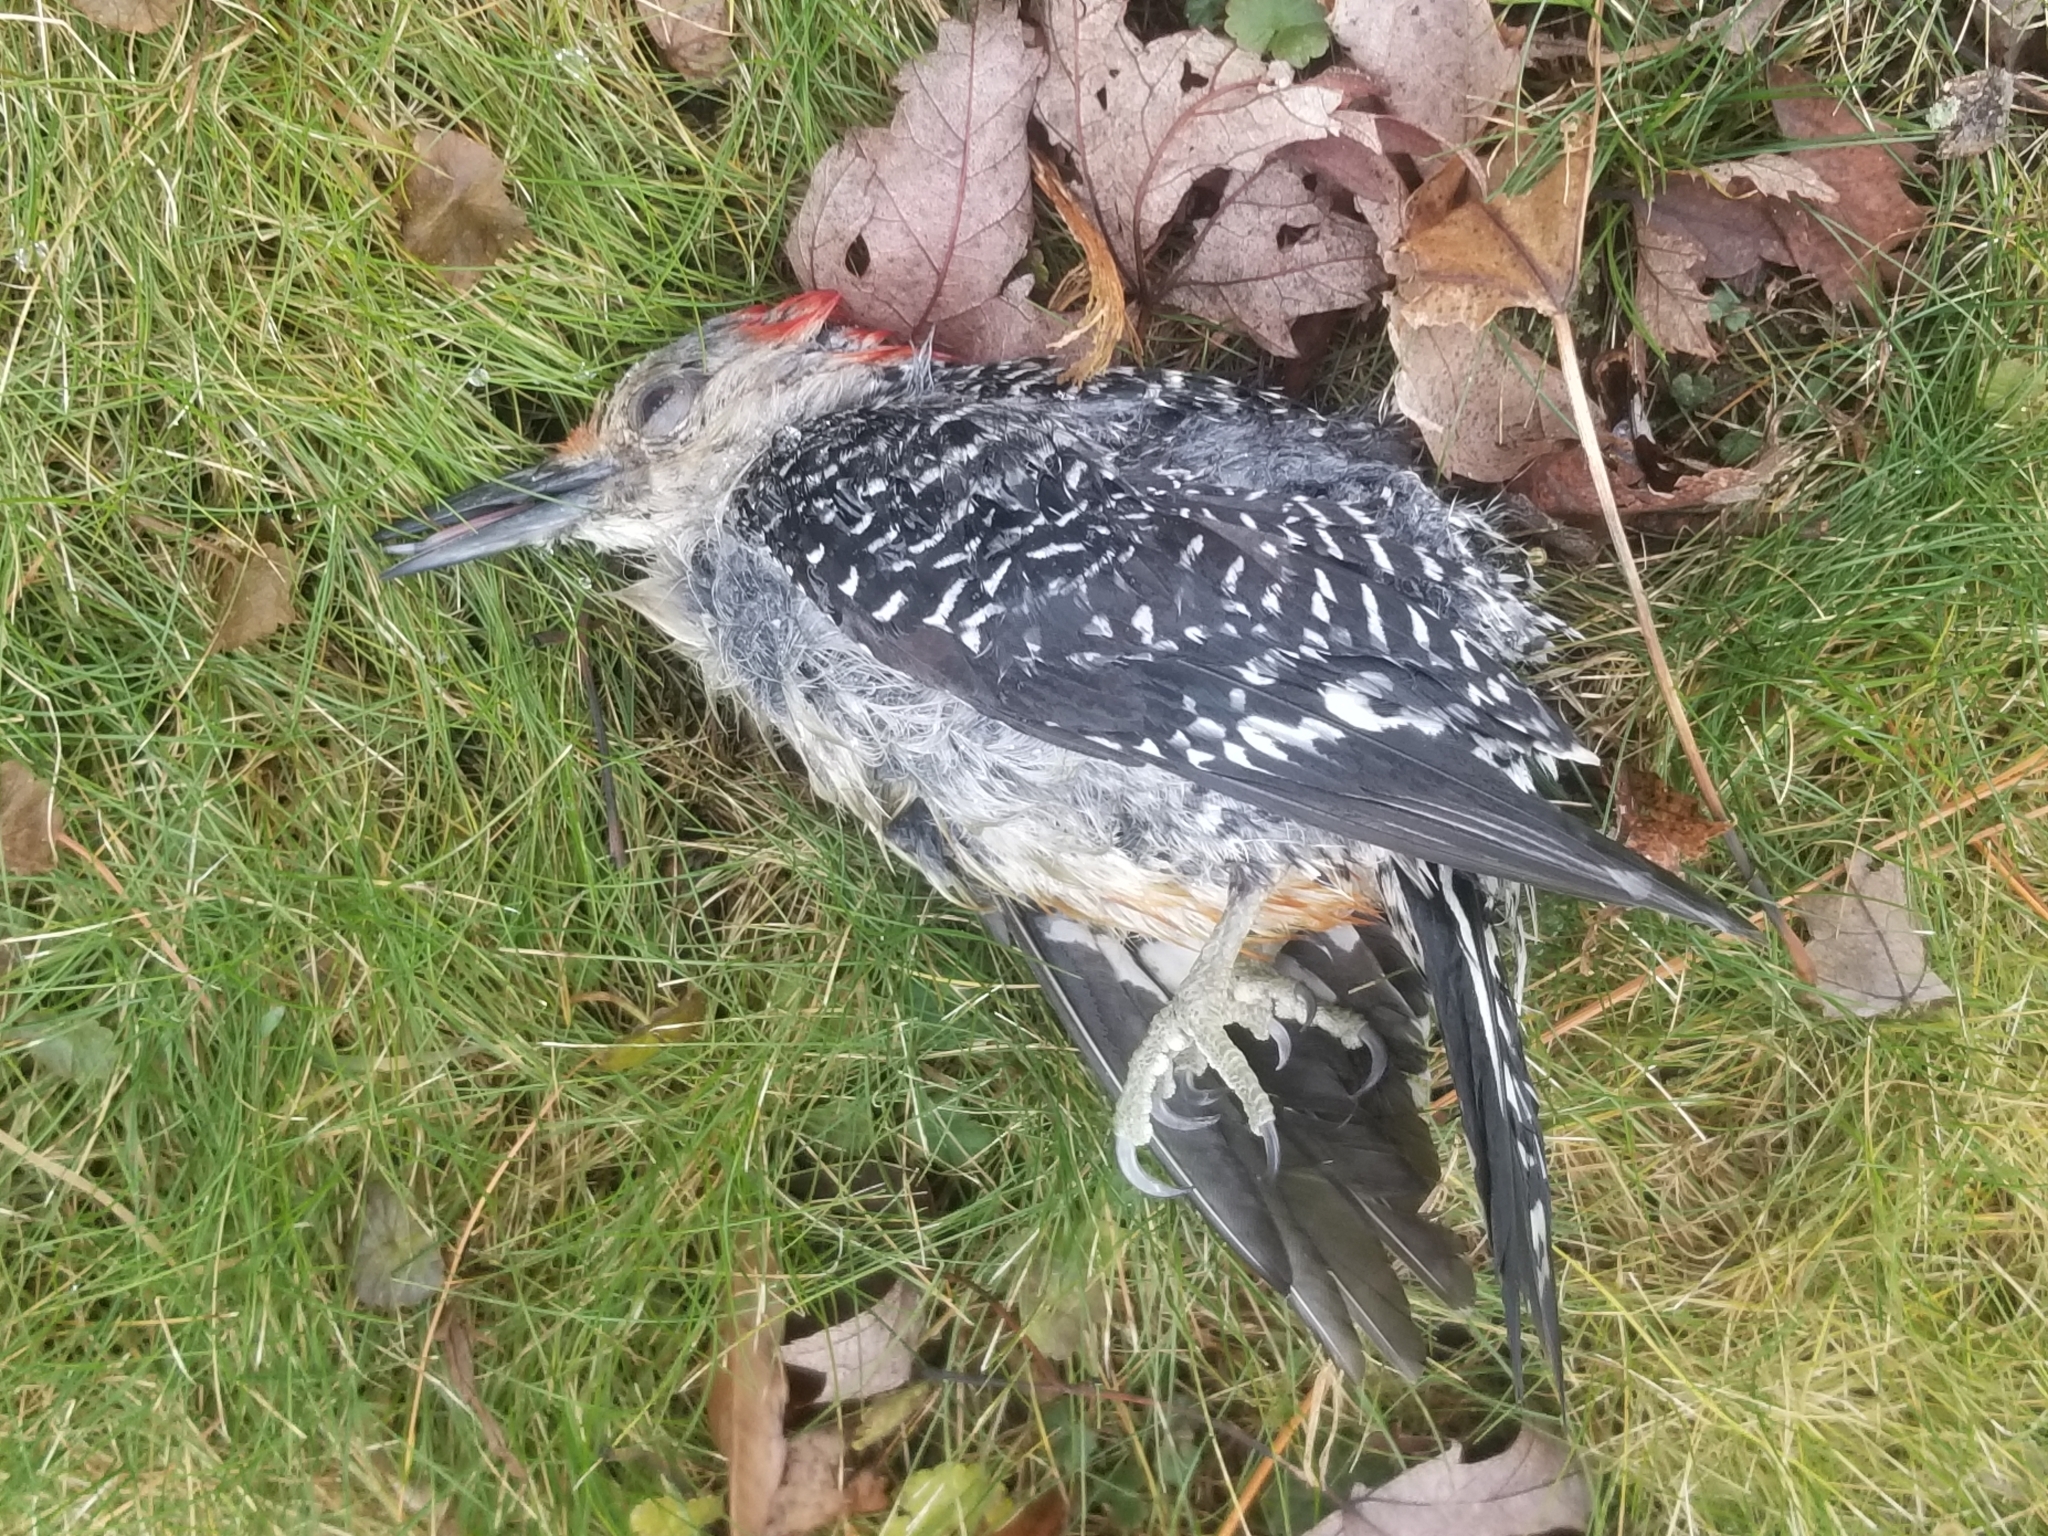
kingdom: Animalia
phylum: Chordata
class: Aves
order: Piciformes
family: Picidae
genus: Melanerpes
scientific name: Melanerpes carolinus
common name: Red-bellied woodpecker
